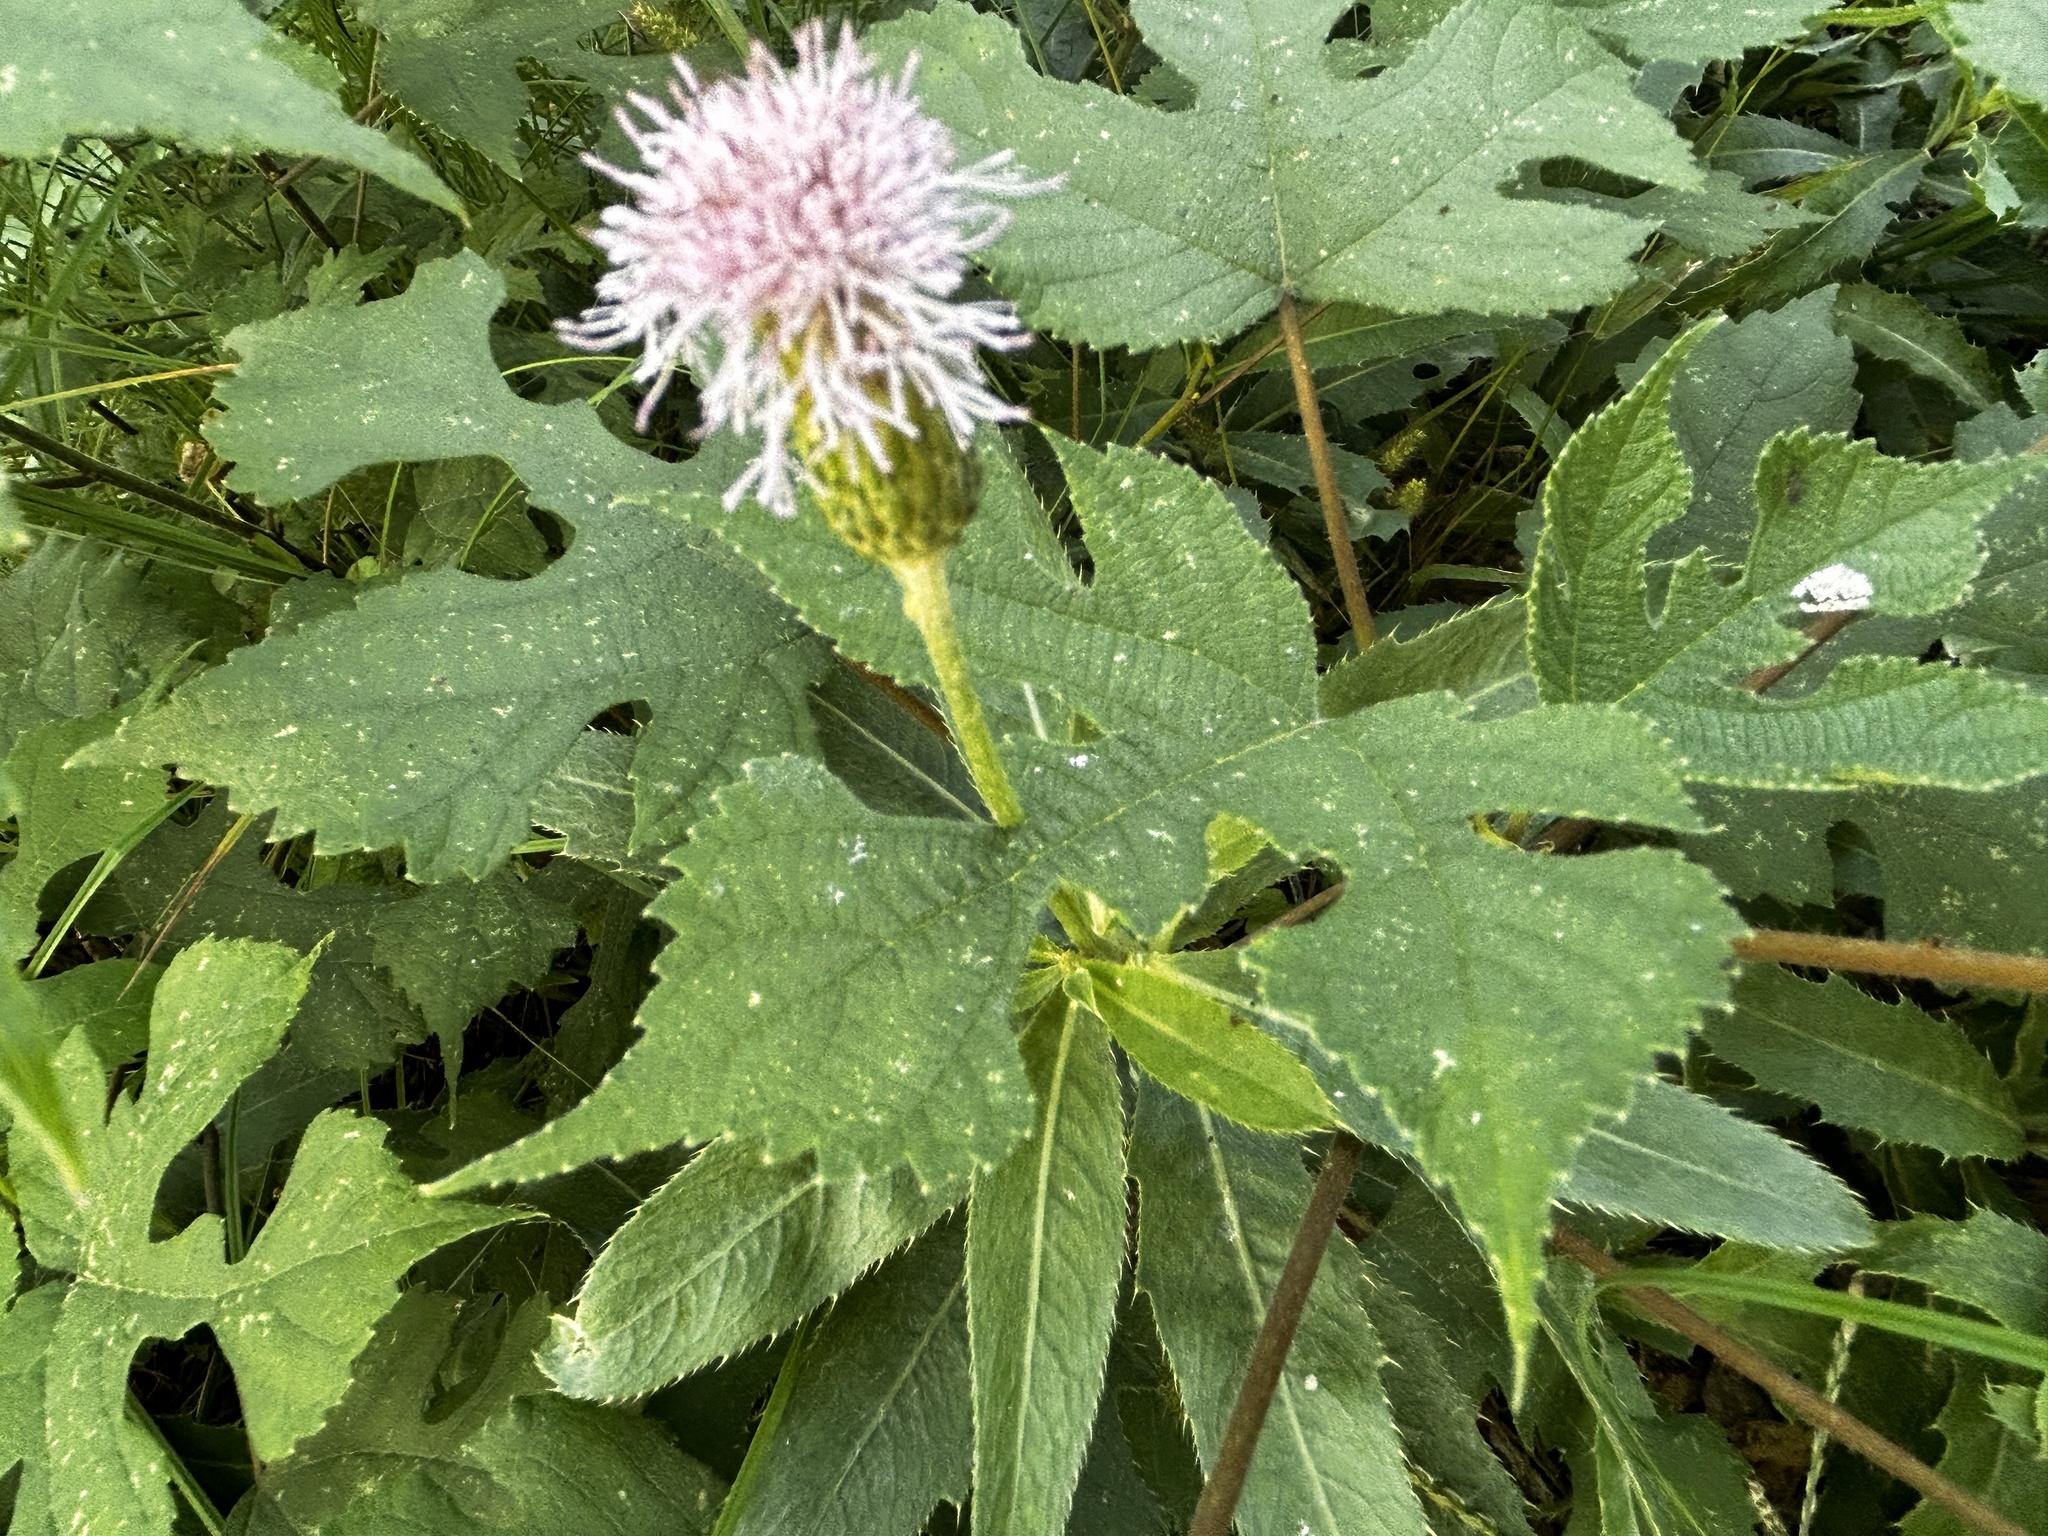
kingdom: Plantae
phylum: Tracheophyta
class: Magnoliopsida
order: Asterales
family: Asteraceae
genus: Cirsium
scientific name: Cirsium arvense
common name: Creeping thistle
